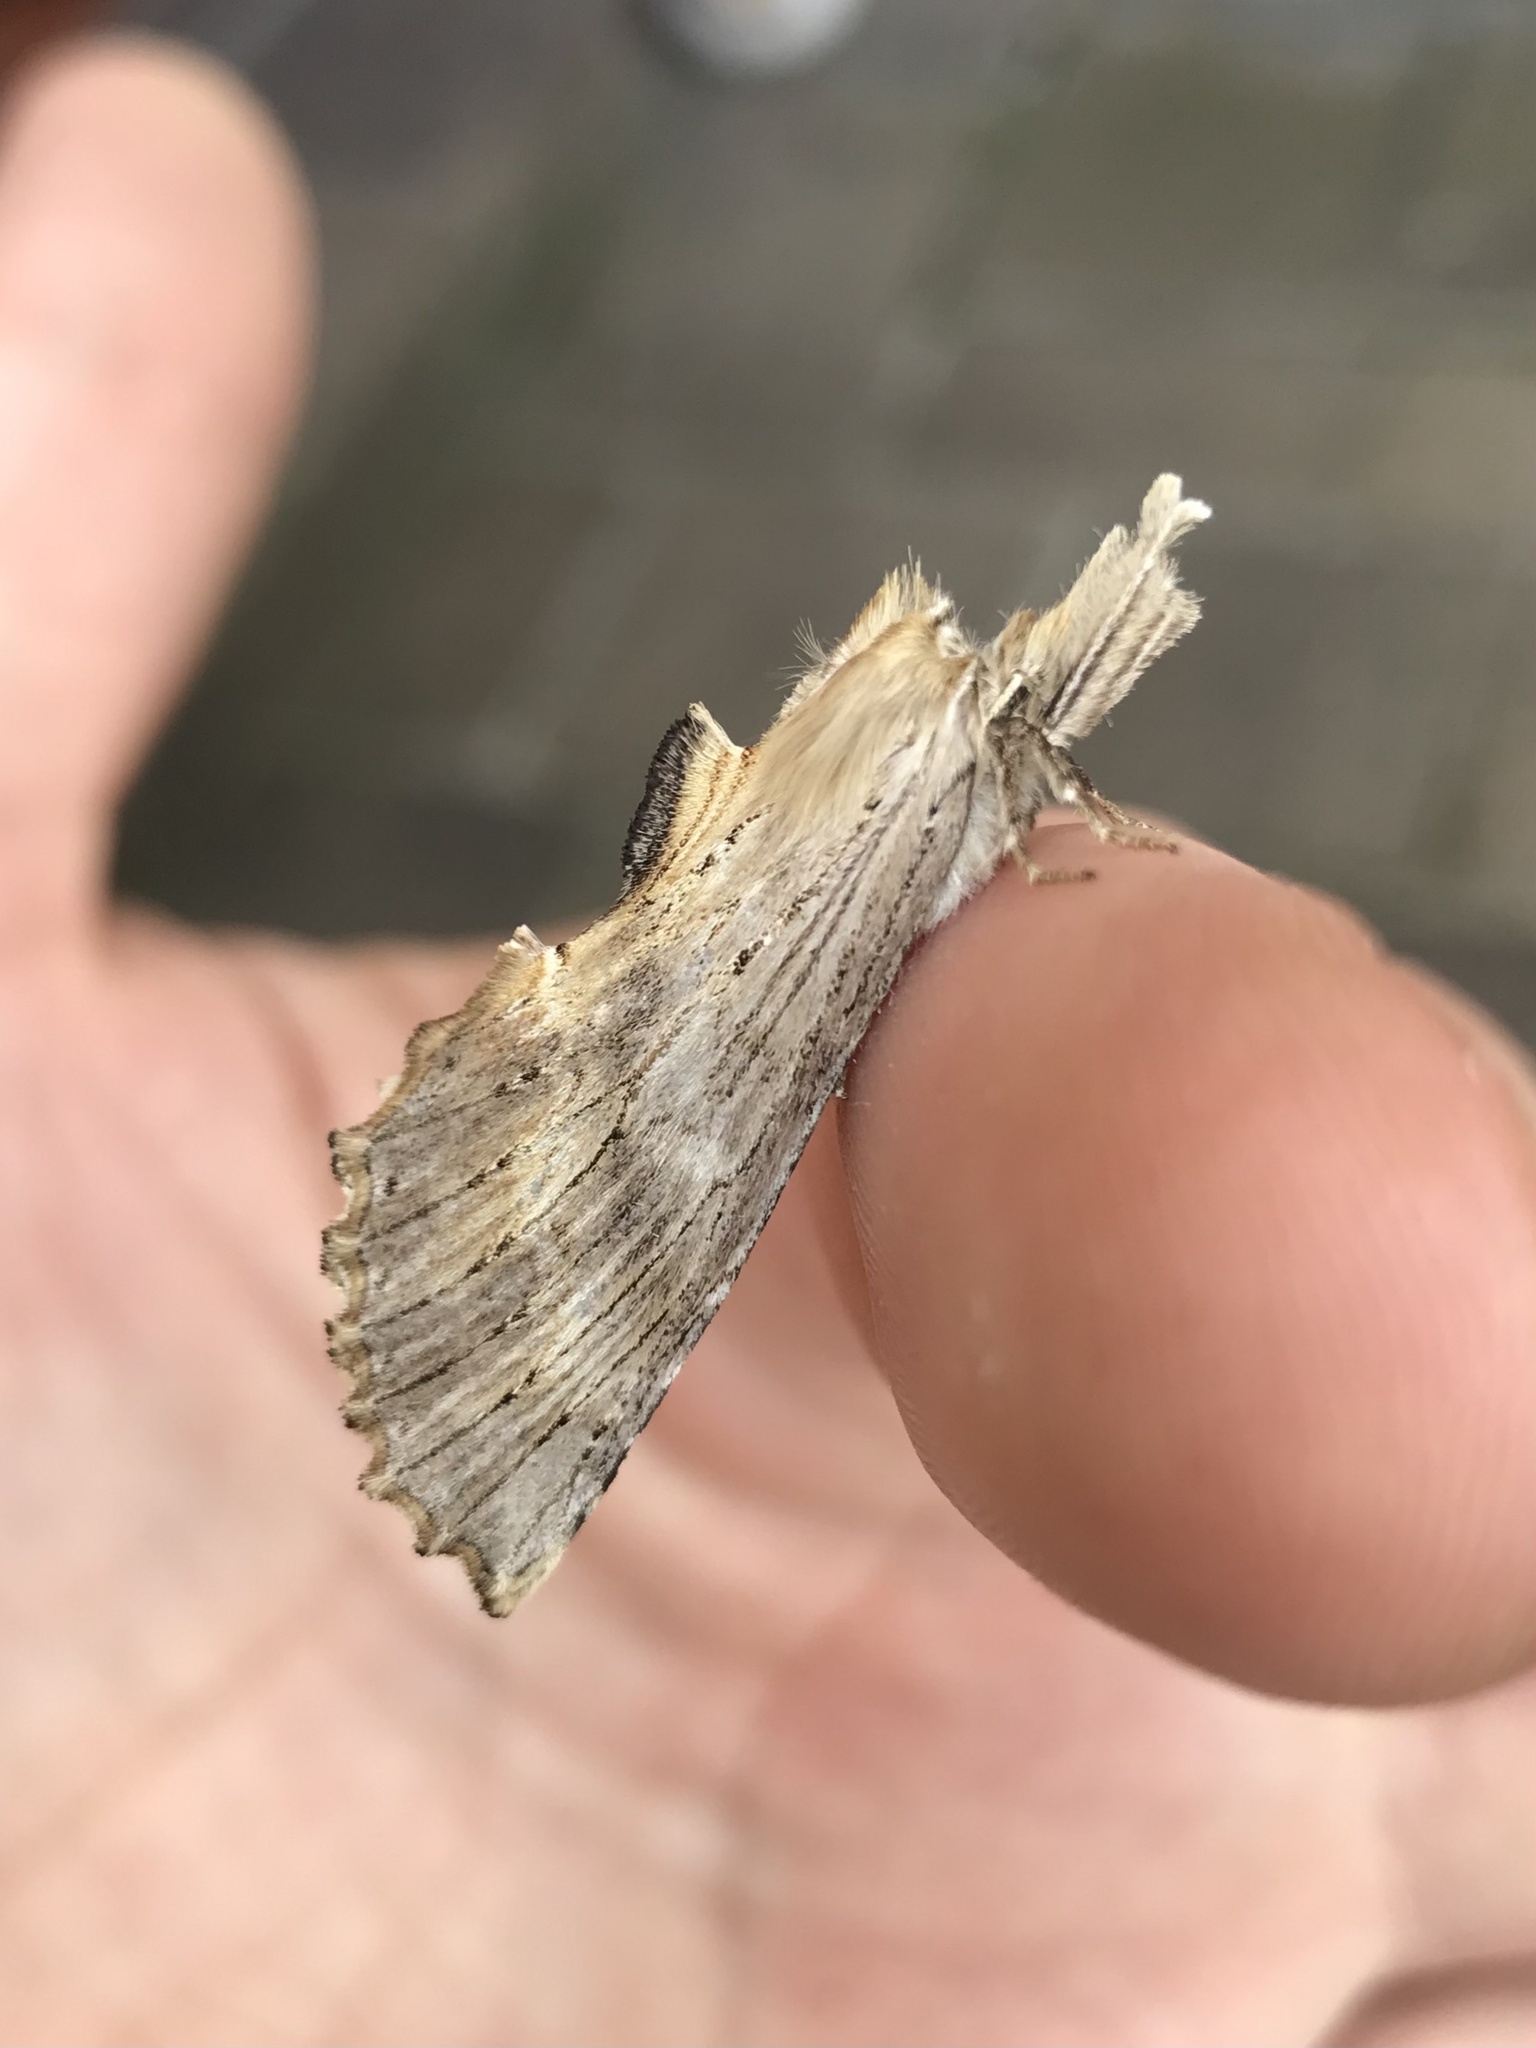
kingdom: Animalia
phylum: Arthropoda
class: Insecta
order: Lepidoptera
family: Notodontidae
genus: Pterostoma
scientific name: Pterostoma palpina
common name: Pale prominent
